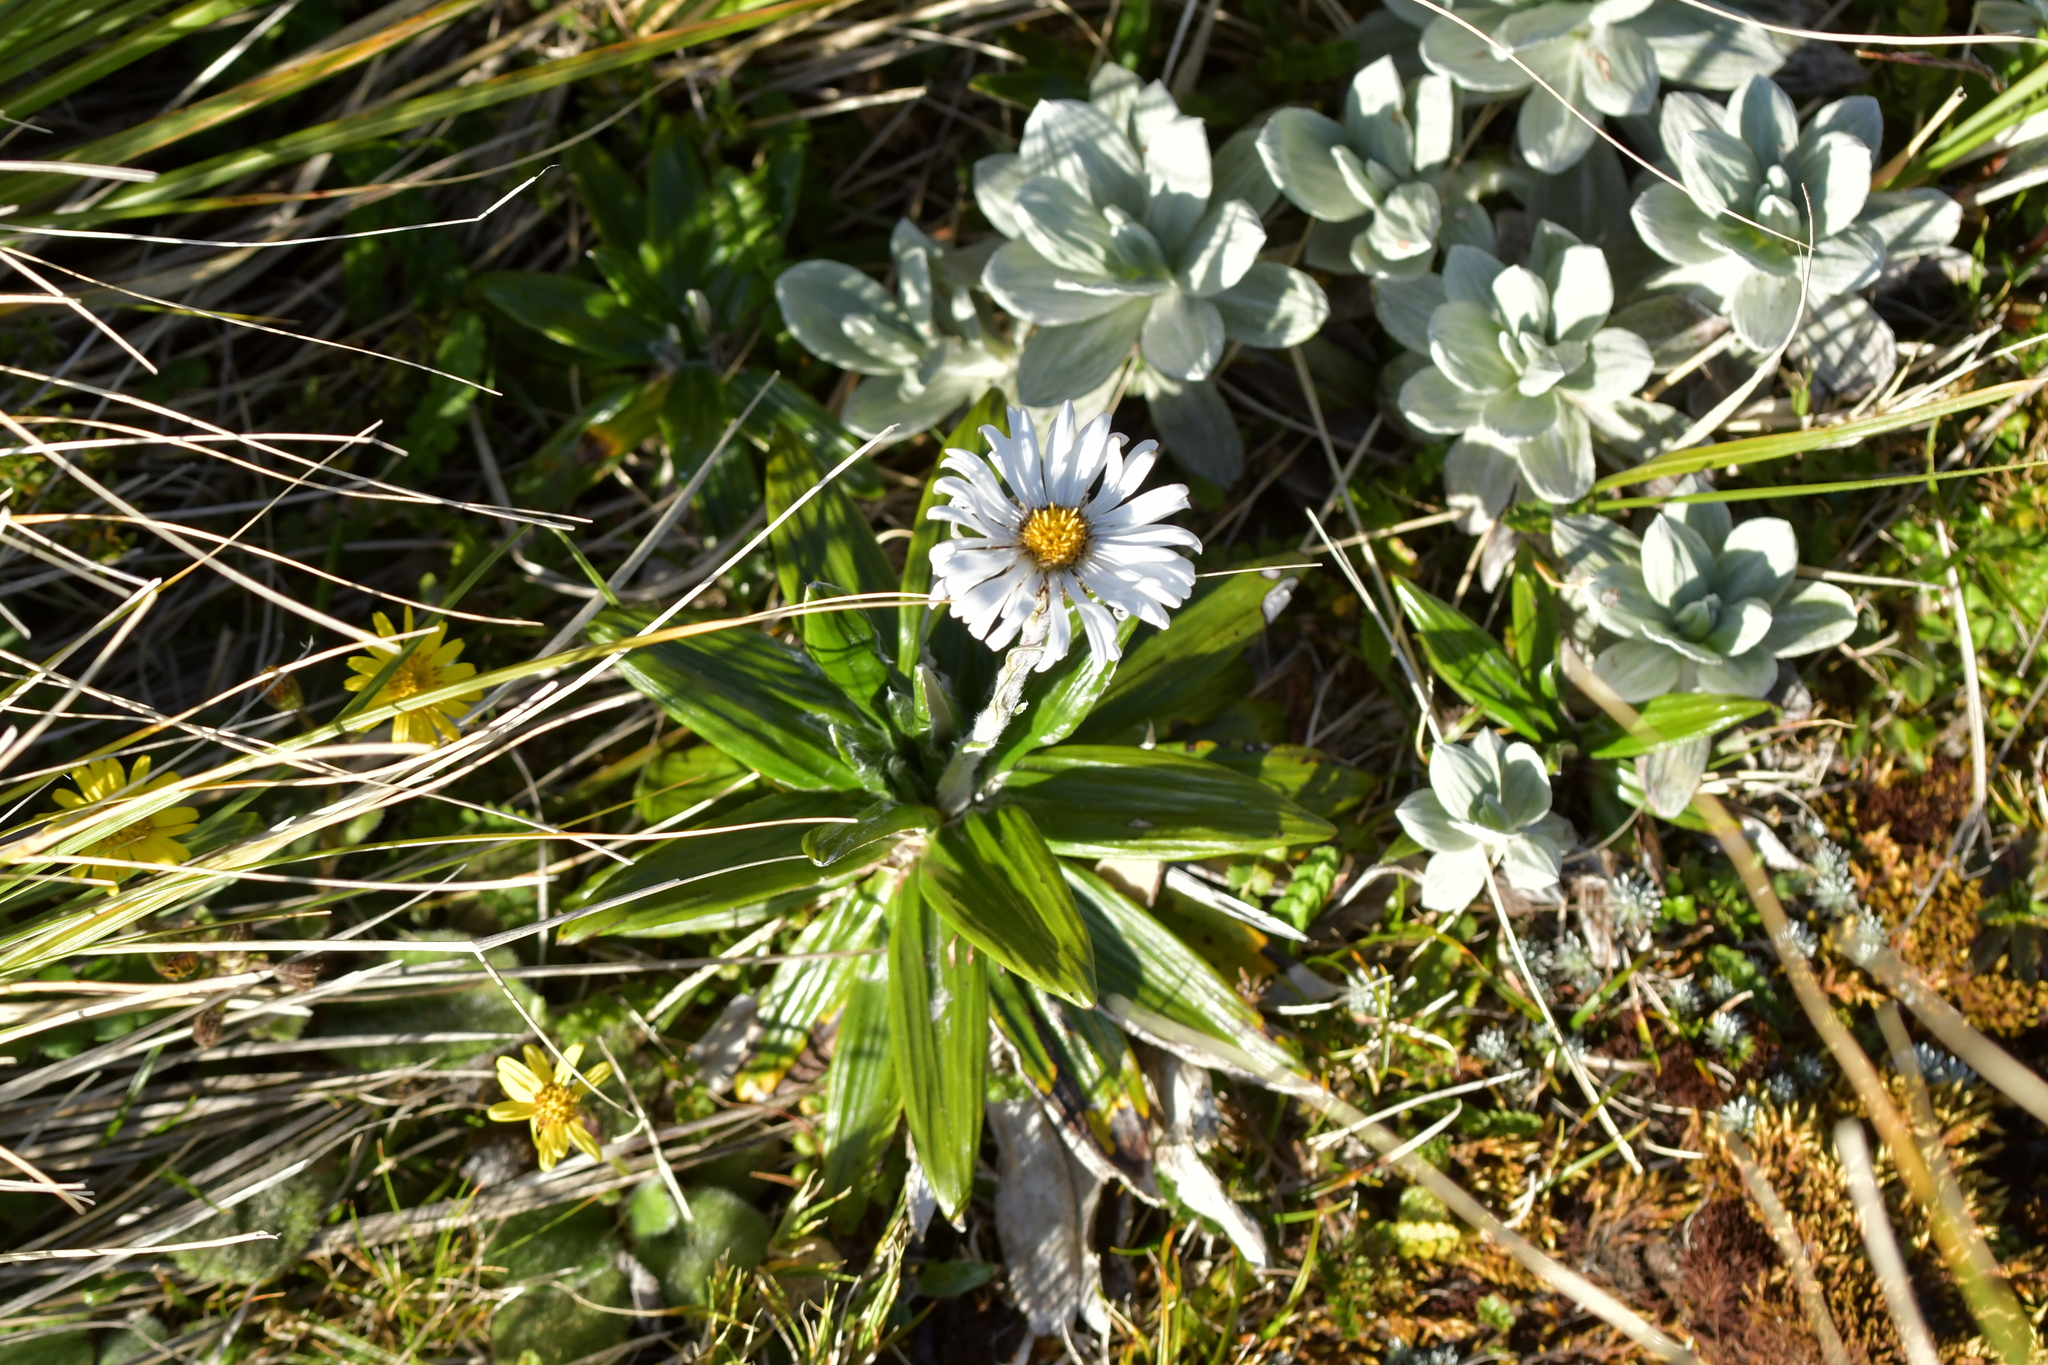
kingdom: Plantae
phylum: Tracheophyta
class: Magnoliopsida
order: Asterales
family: Asteraceae
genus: Celmisia
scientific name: Celmisia spectabilis
